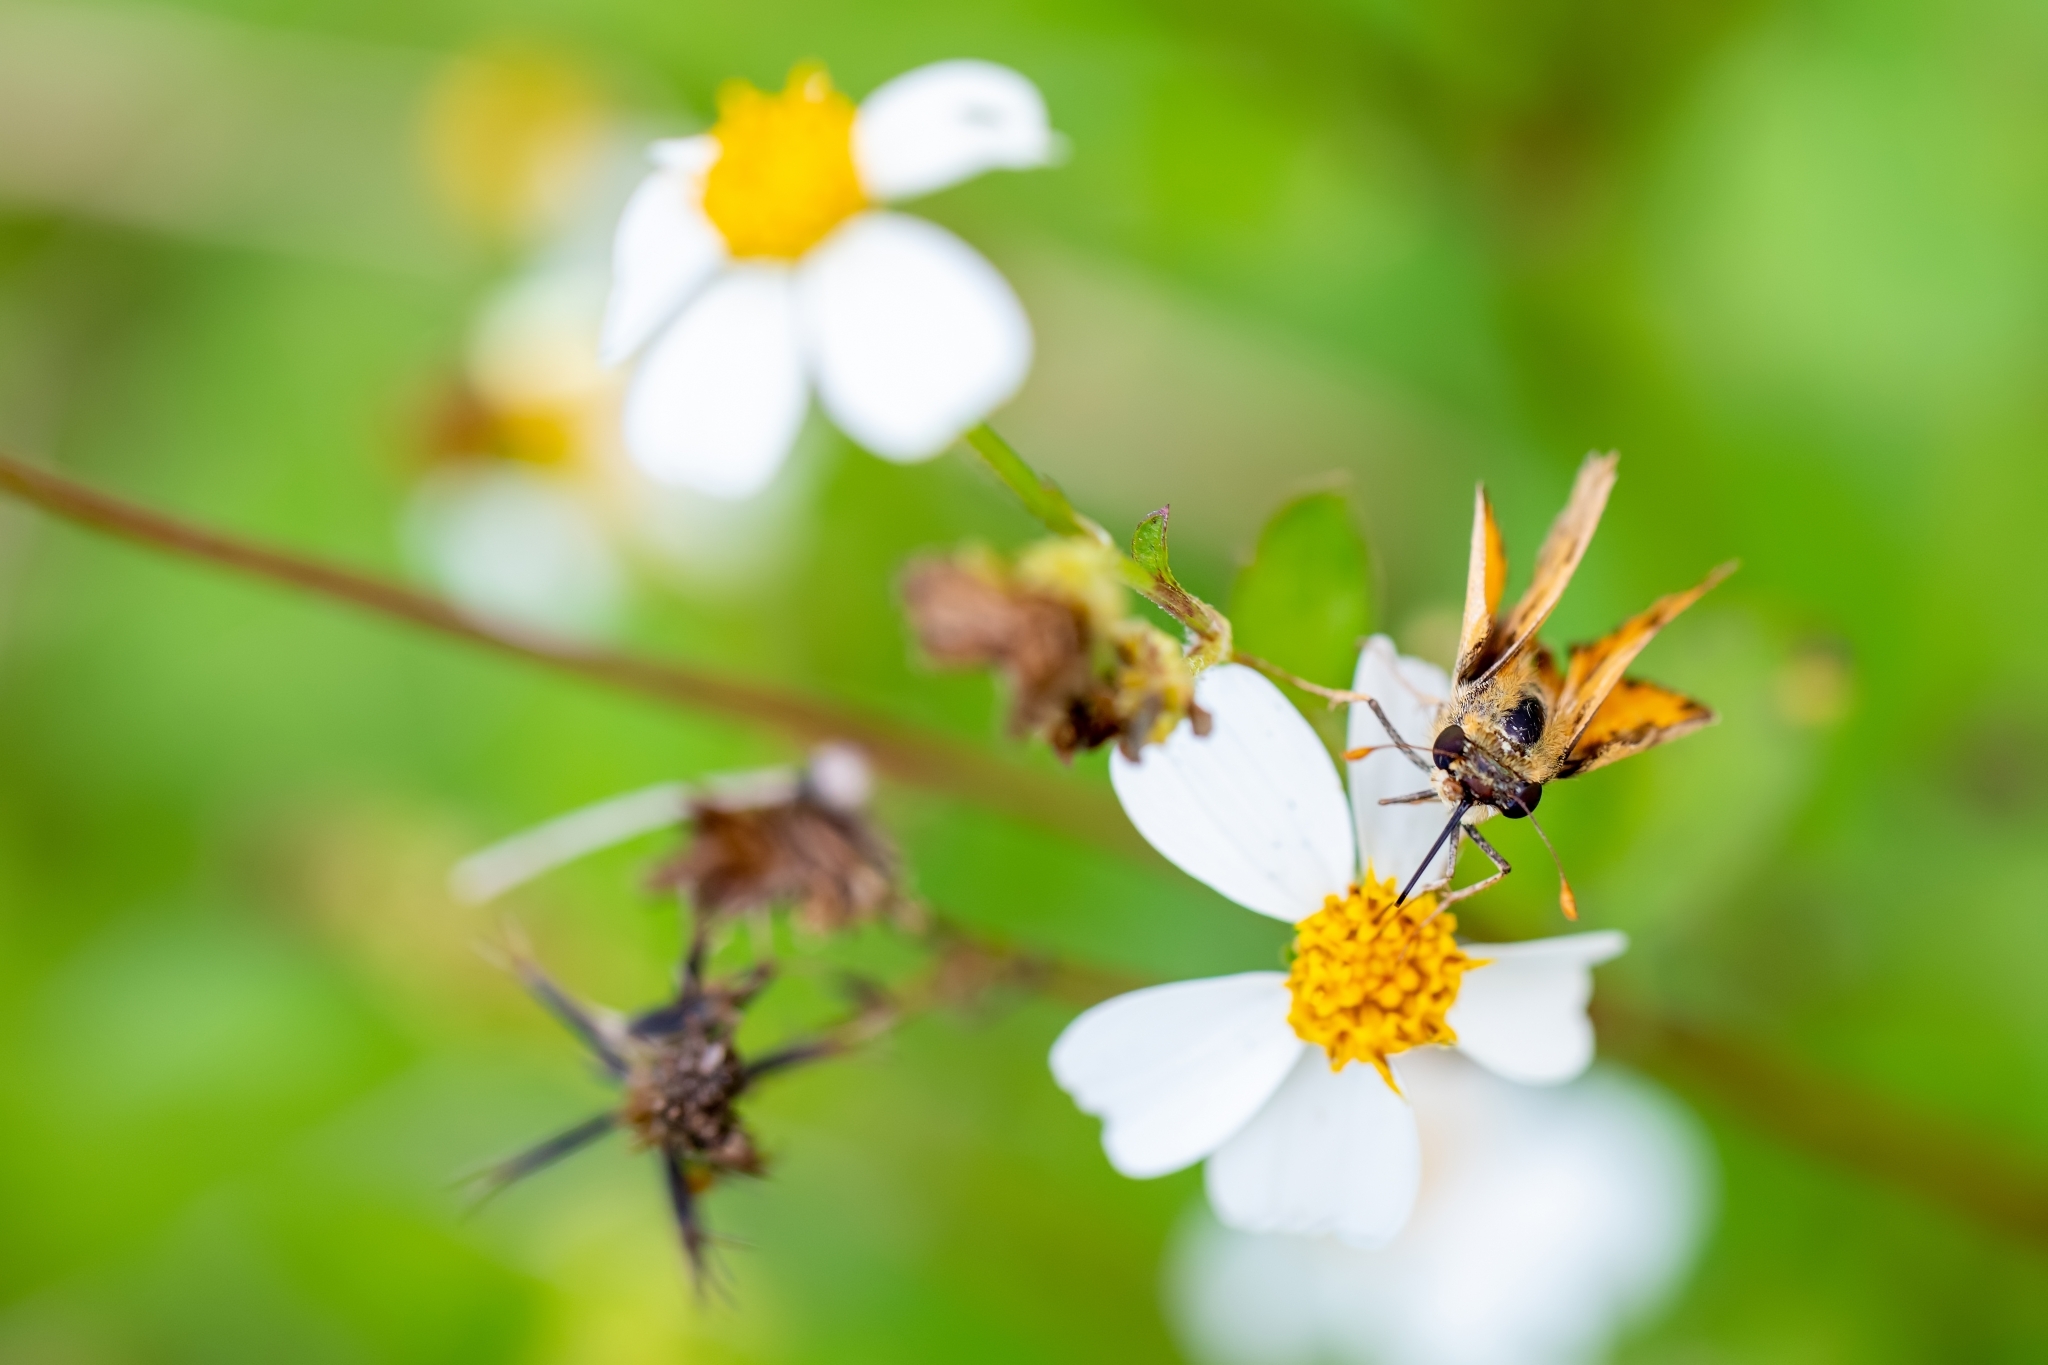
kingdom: Animalia
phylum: Arthropoda
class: Insecta
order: Lepidoptera
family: Hesperiidae
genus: Hylephila
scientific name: Hylephila phyleus
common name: Fiery skipper
